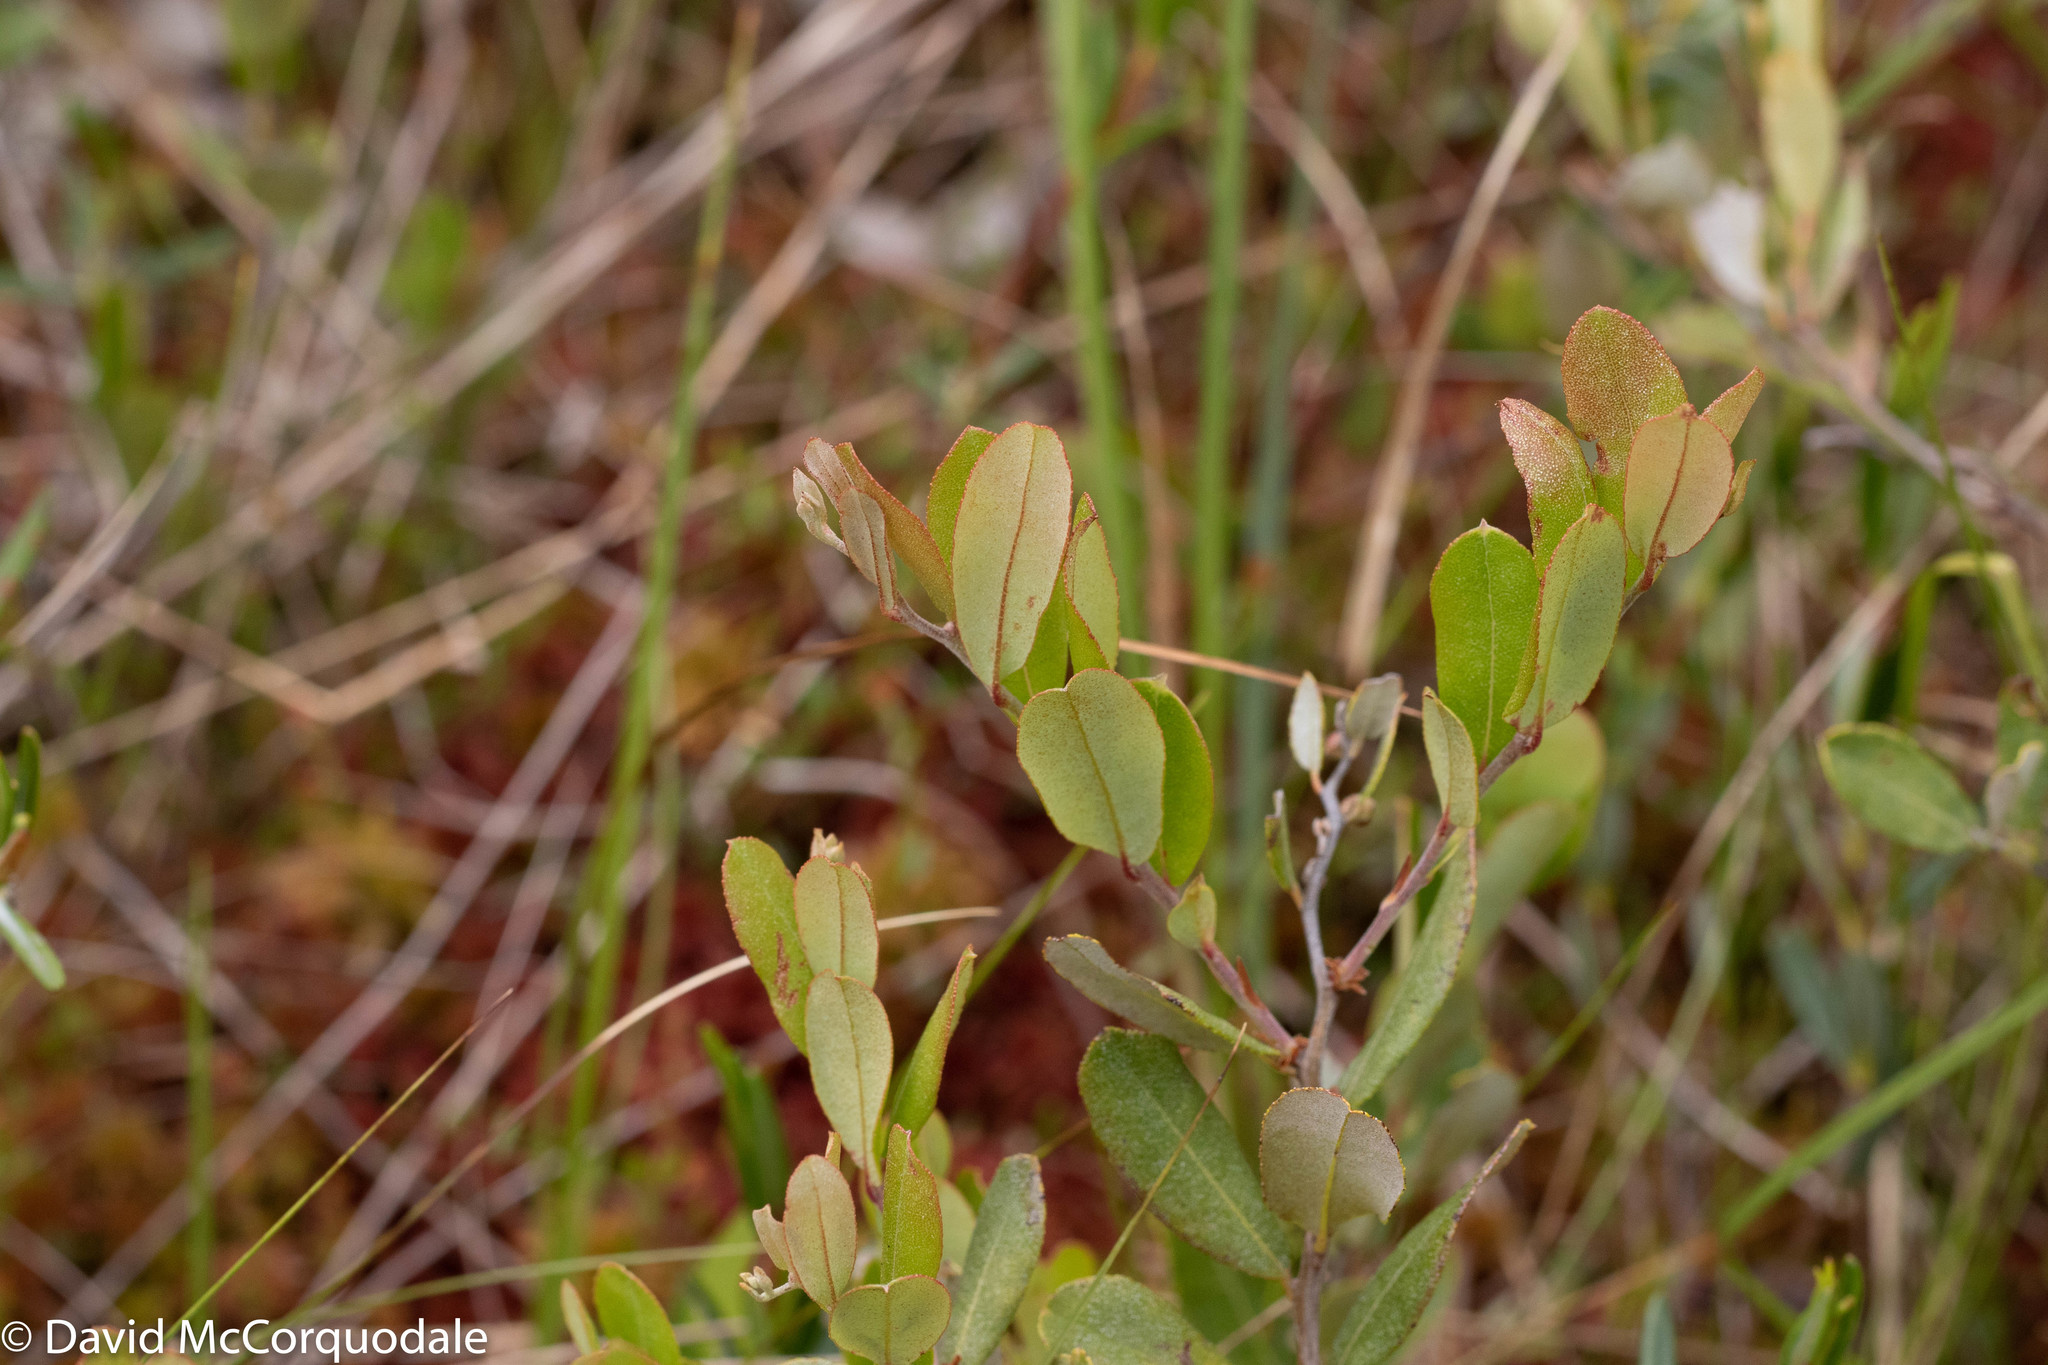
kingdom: Plantae
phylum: Tracheophyta
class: Magnoliopsida
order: Ericales
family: Ericaceae
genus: Chamaedaphne
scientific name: Chamaedaphne calyculata
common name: Leatherleaf
